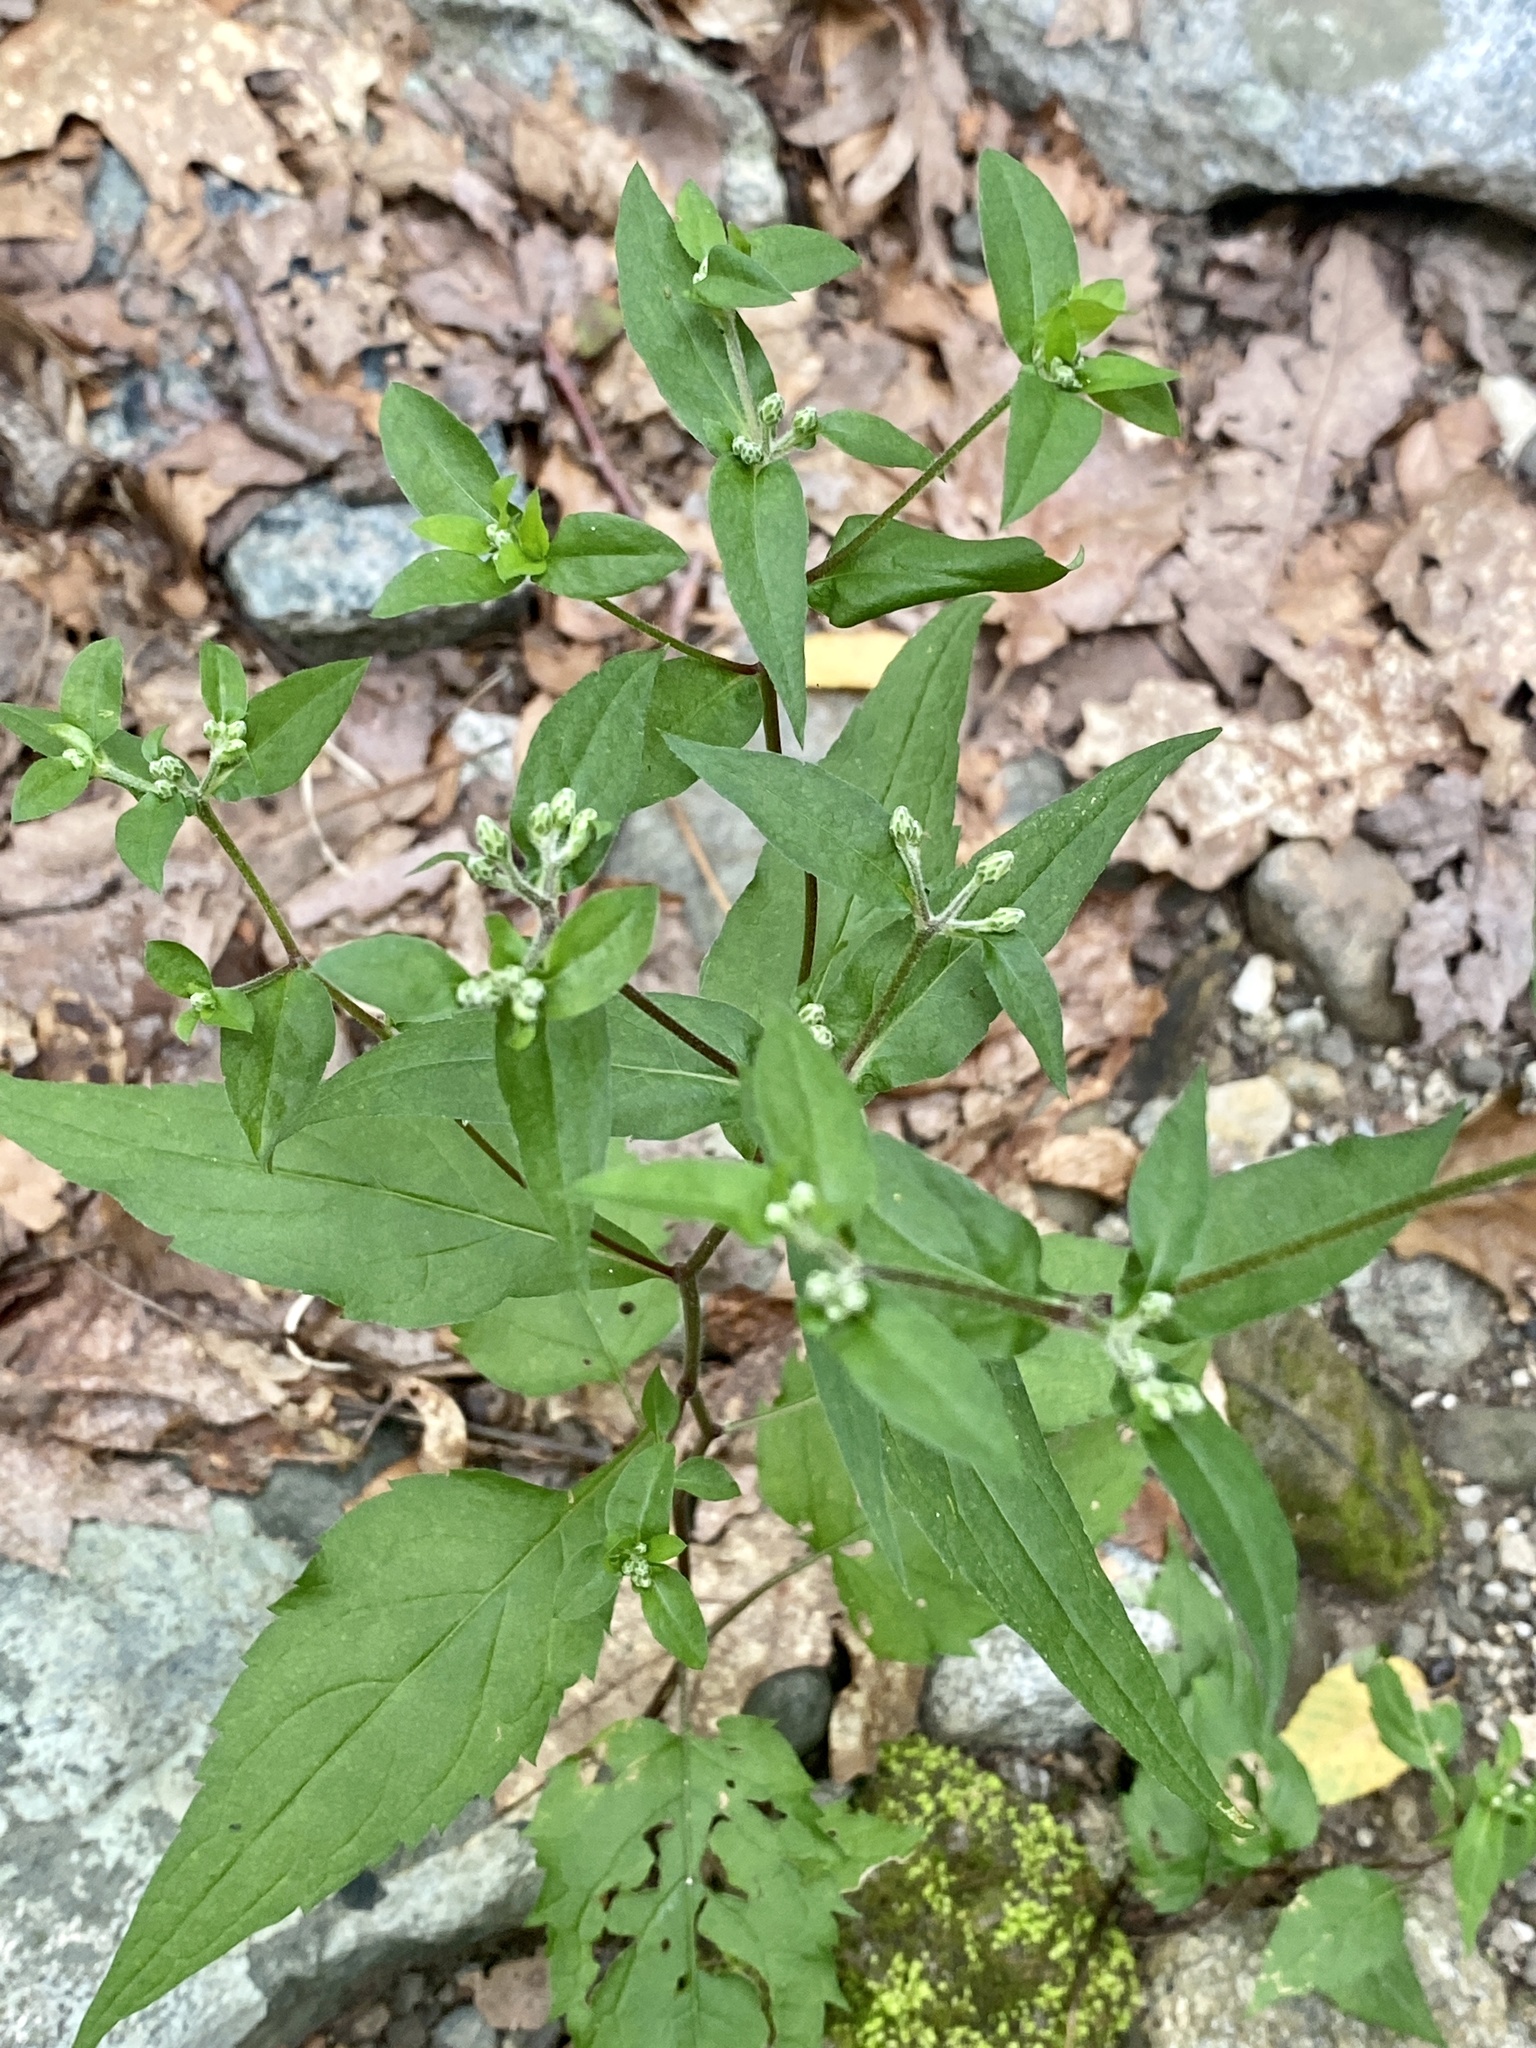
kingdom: Plantae
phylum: Tracheophyta
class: Magnoliopsida
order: Asterales
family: Asteraceae
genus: Eurybia
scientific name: Eurybia divaricata
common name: White wood aster
